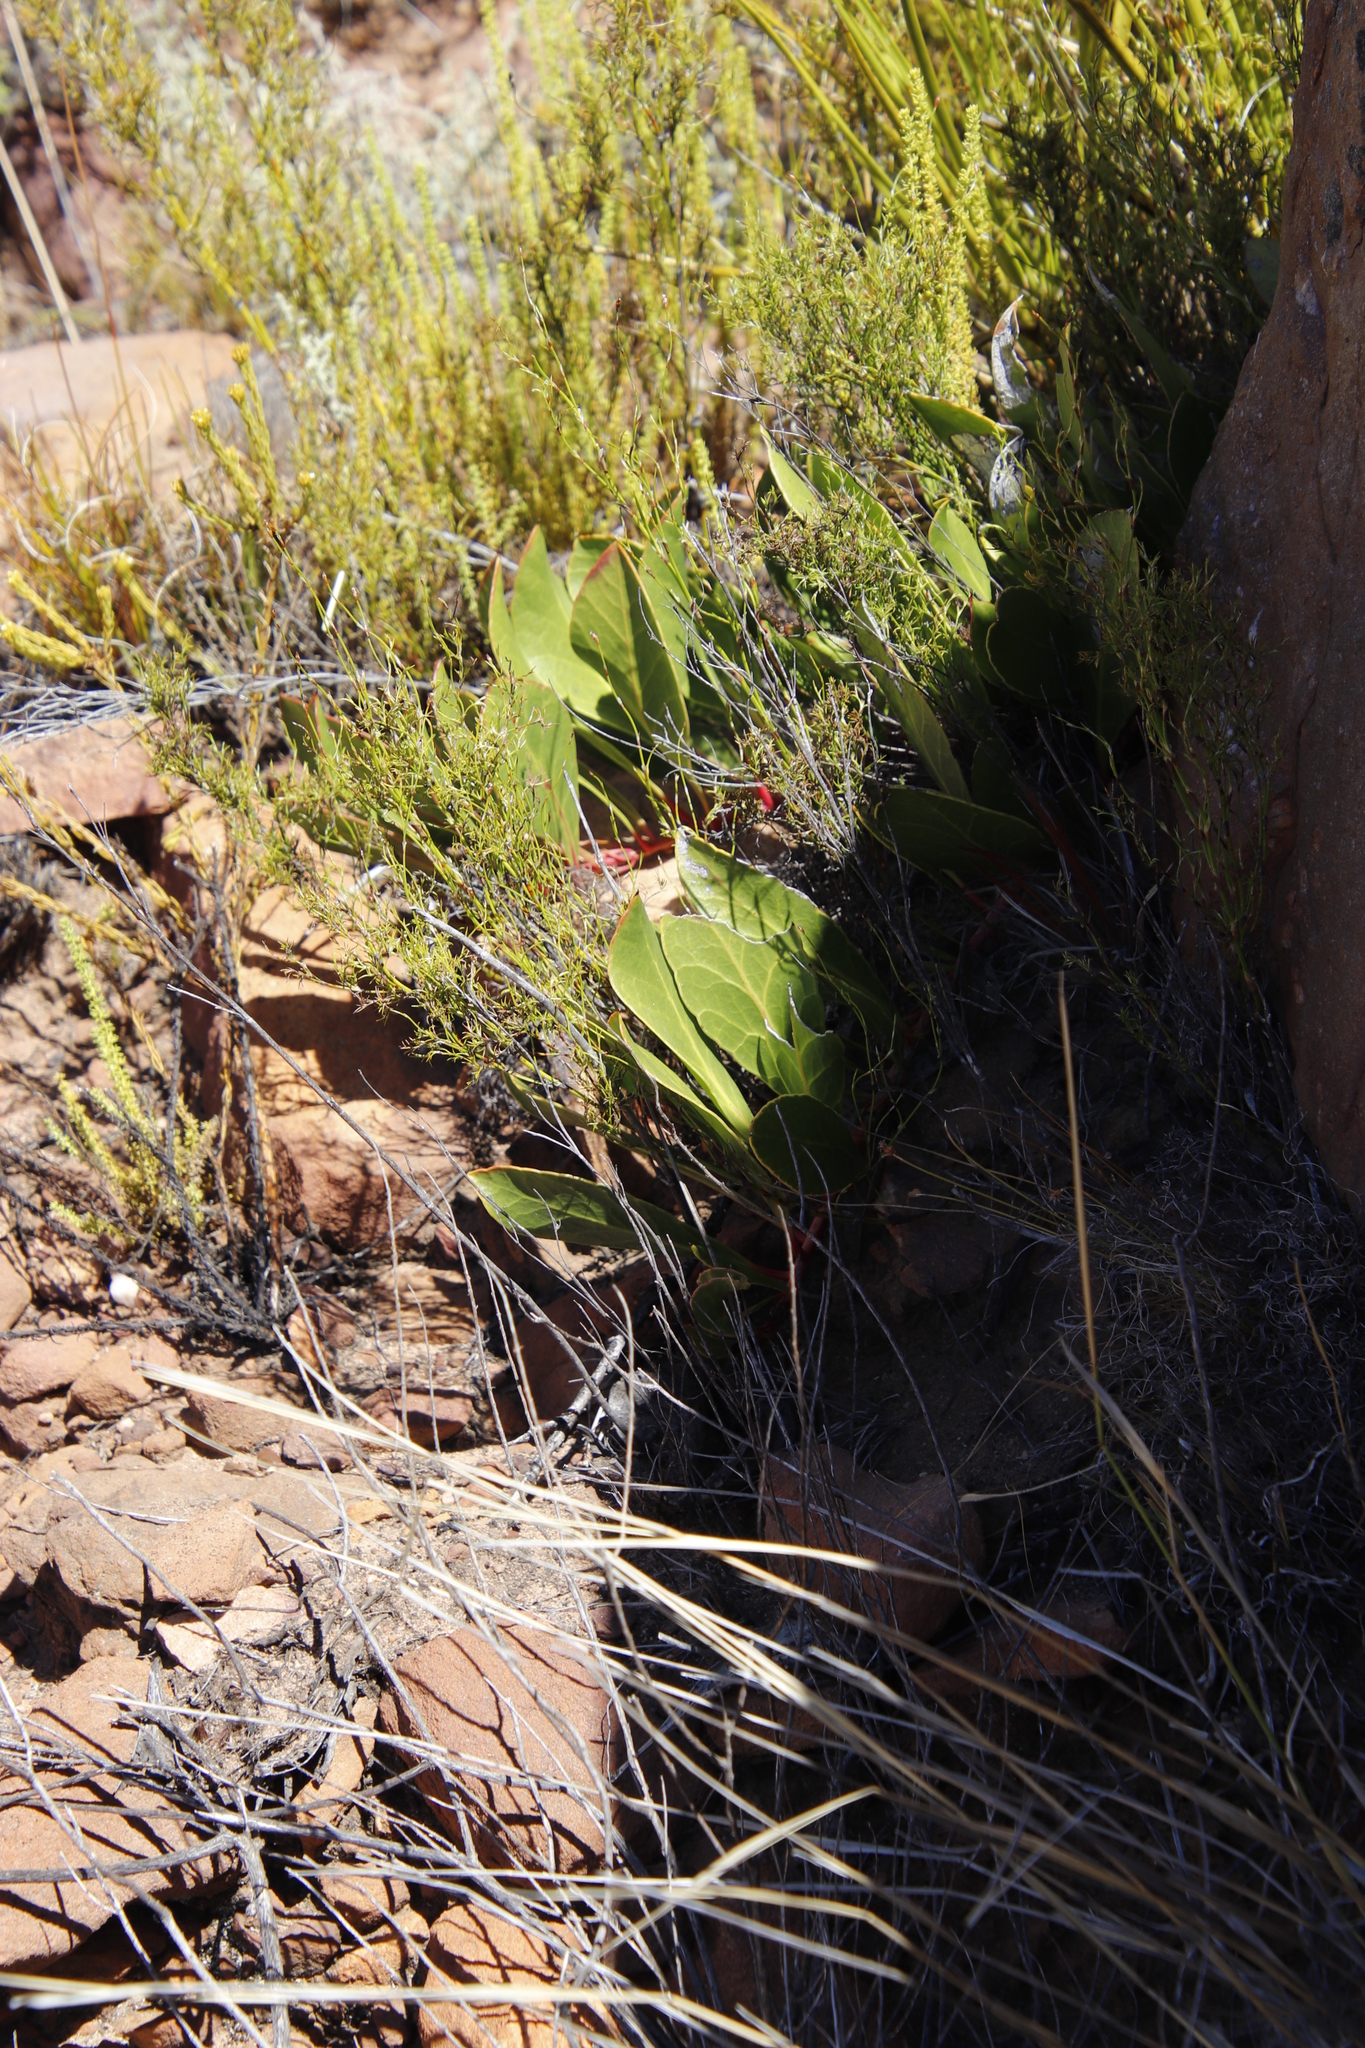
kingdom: Plantae
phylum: Tracheophyta
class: Magnoliopsida
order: Proteales
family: Proteaceae
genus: Protea
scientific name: Protea acaulos
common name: Common ground sugarbush
